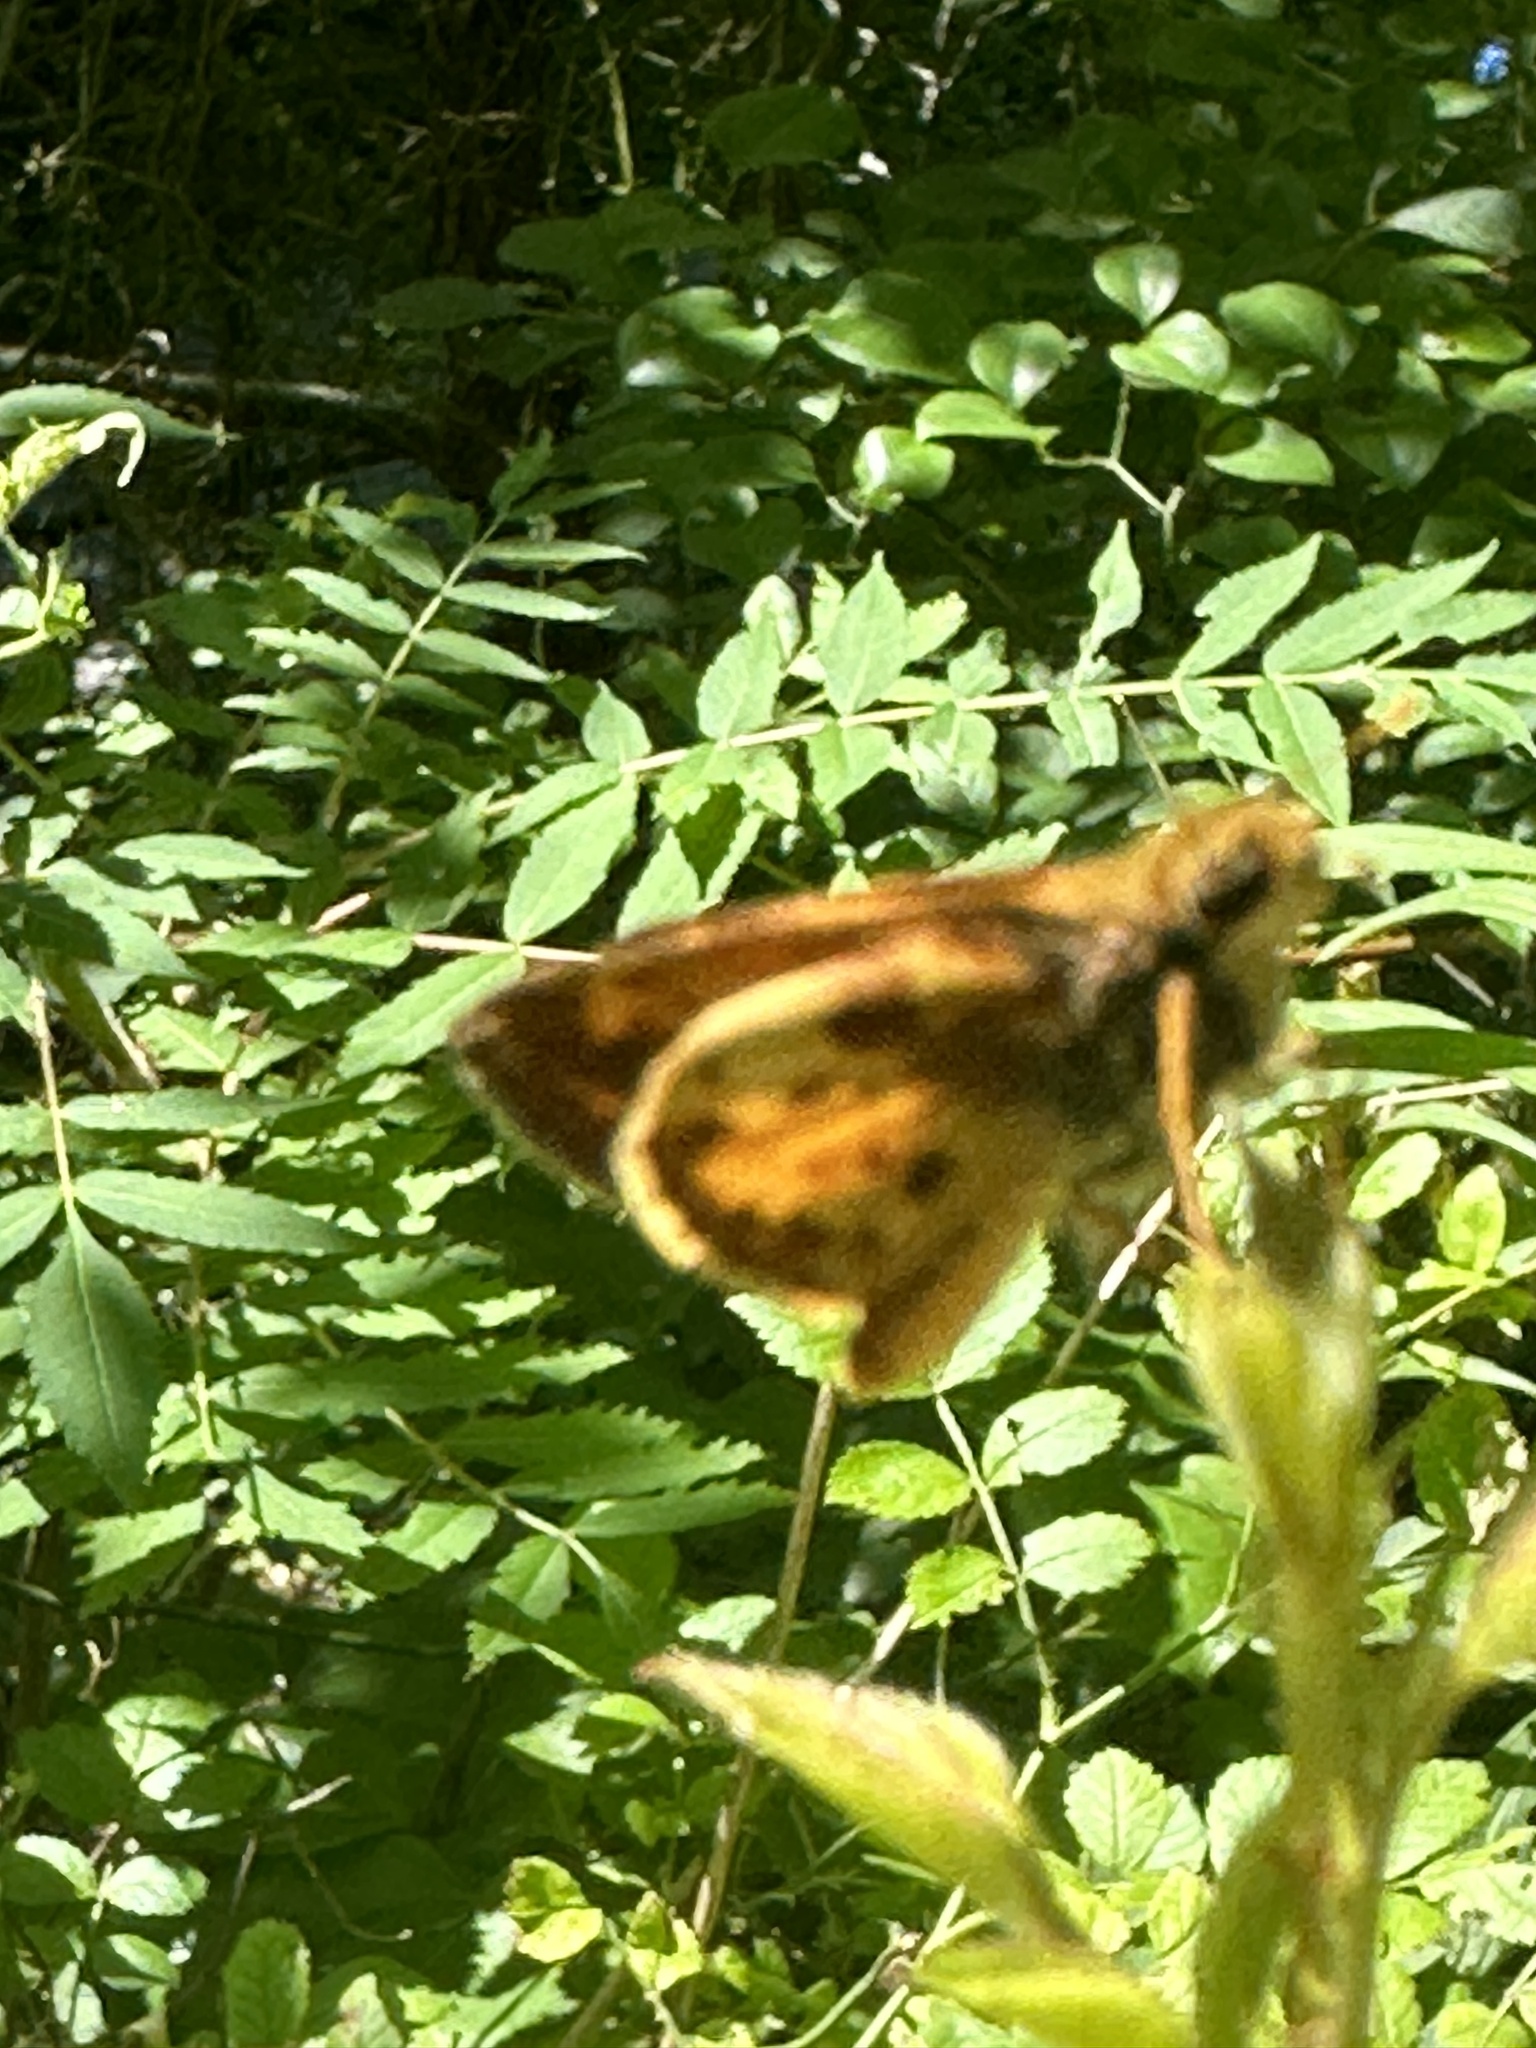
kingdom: Animalia
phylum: Arthropoda
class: Insecta
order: Lepidoptera
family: Hesperiidae
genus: Lon
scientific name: Lon zabulon
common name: Zabulon skipper
